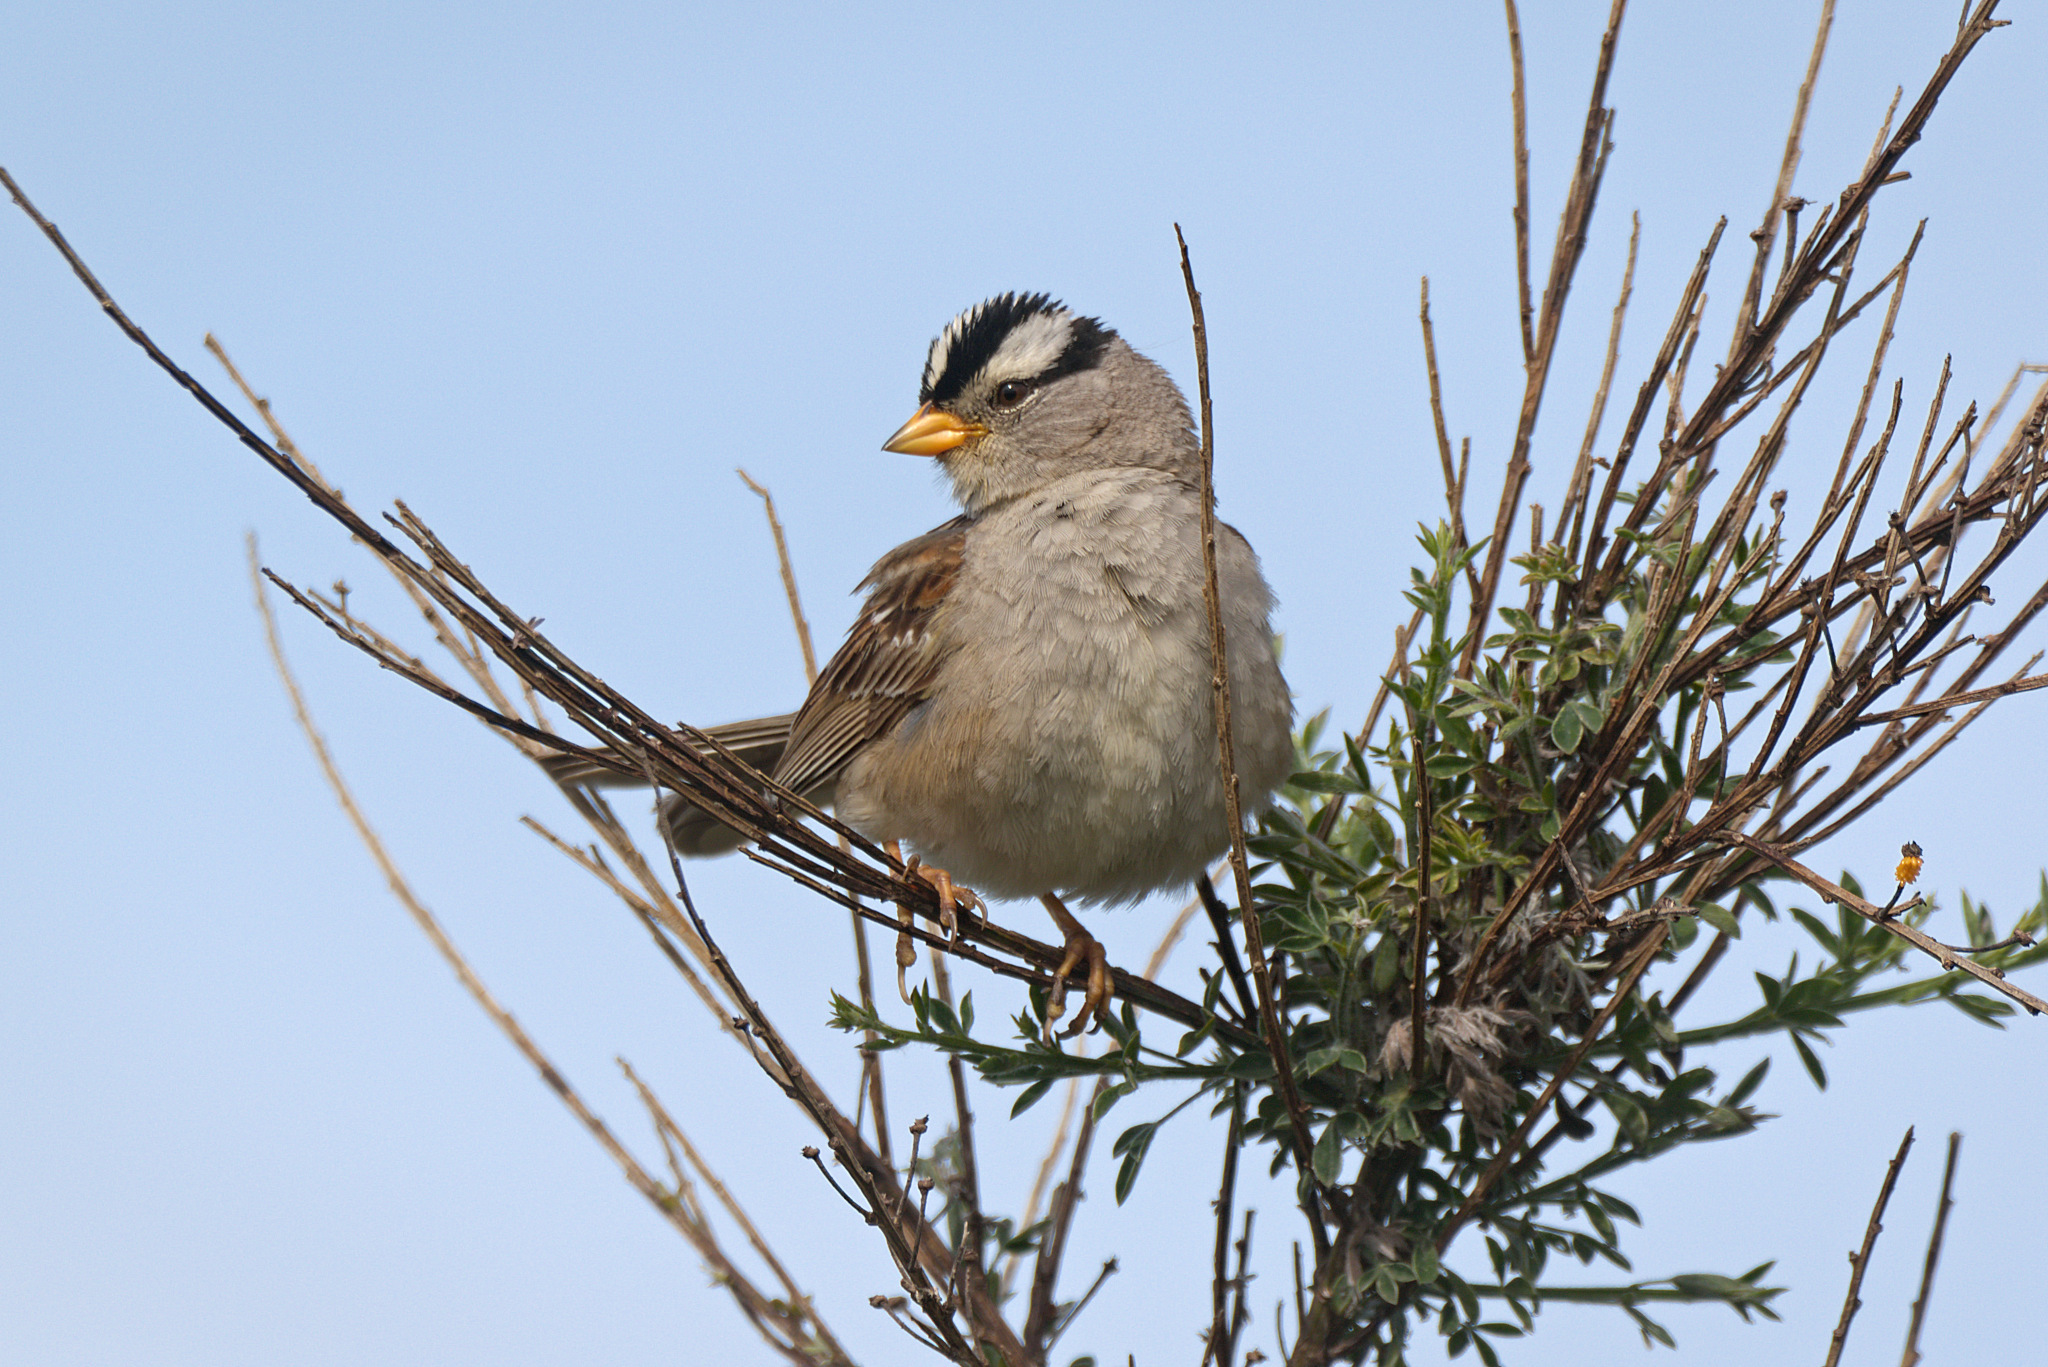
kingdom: Animalia
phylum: Chordata
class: Aves
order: Passeriformes
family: Passerellidae
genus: Zonotrichia
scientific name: Zonotrichia leucophrys
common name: White-crowned sparrow
